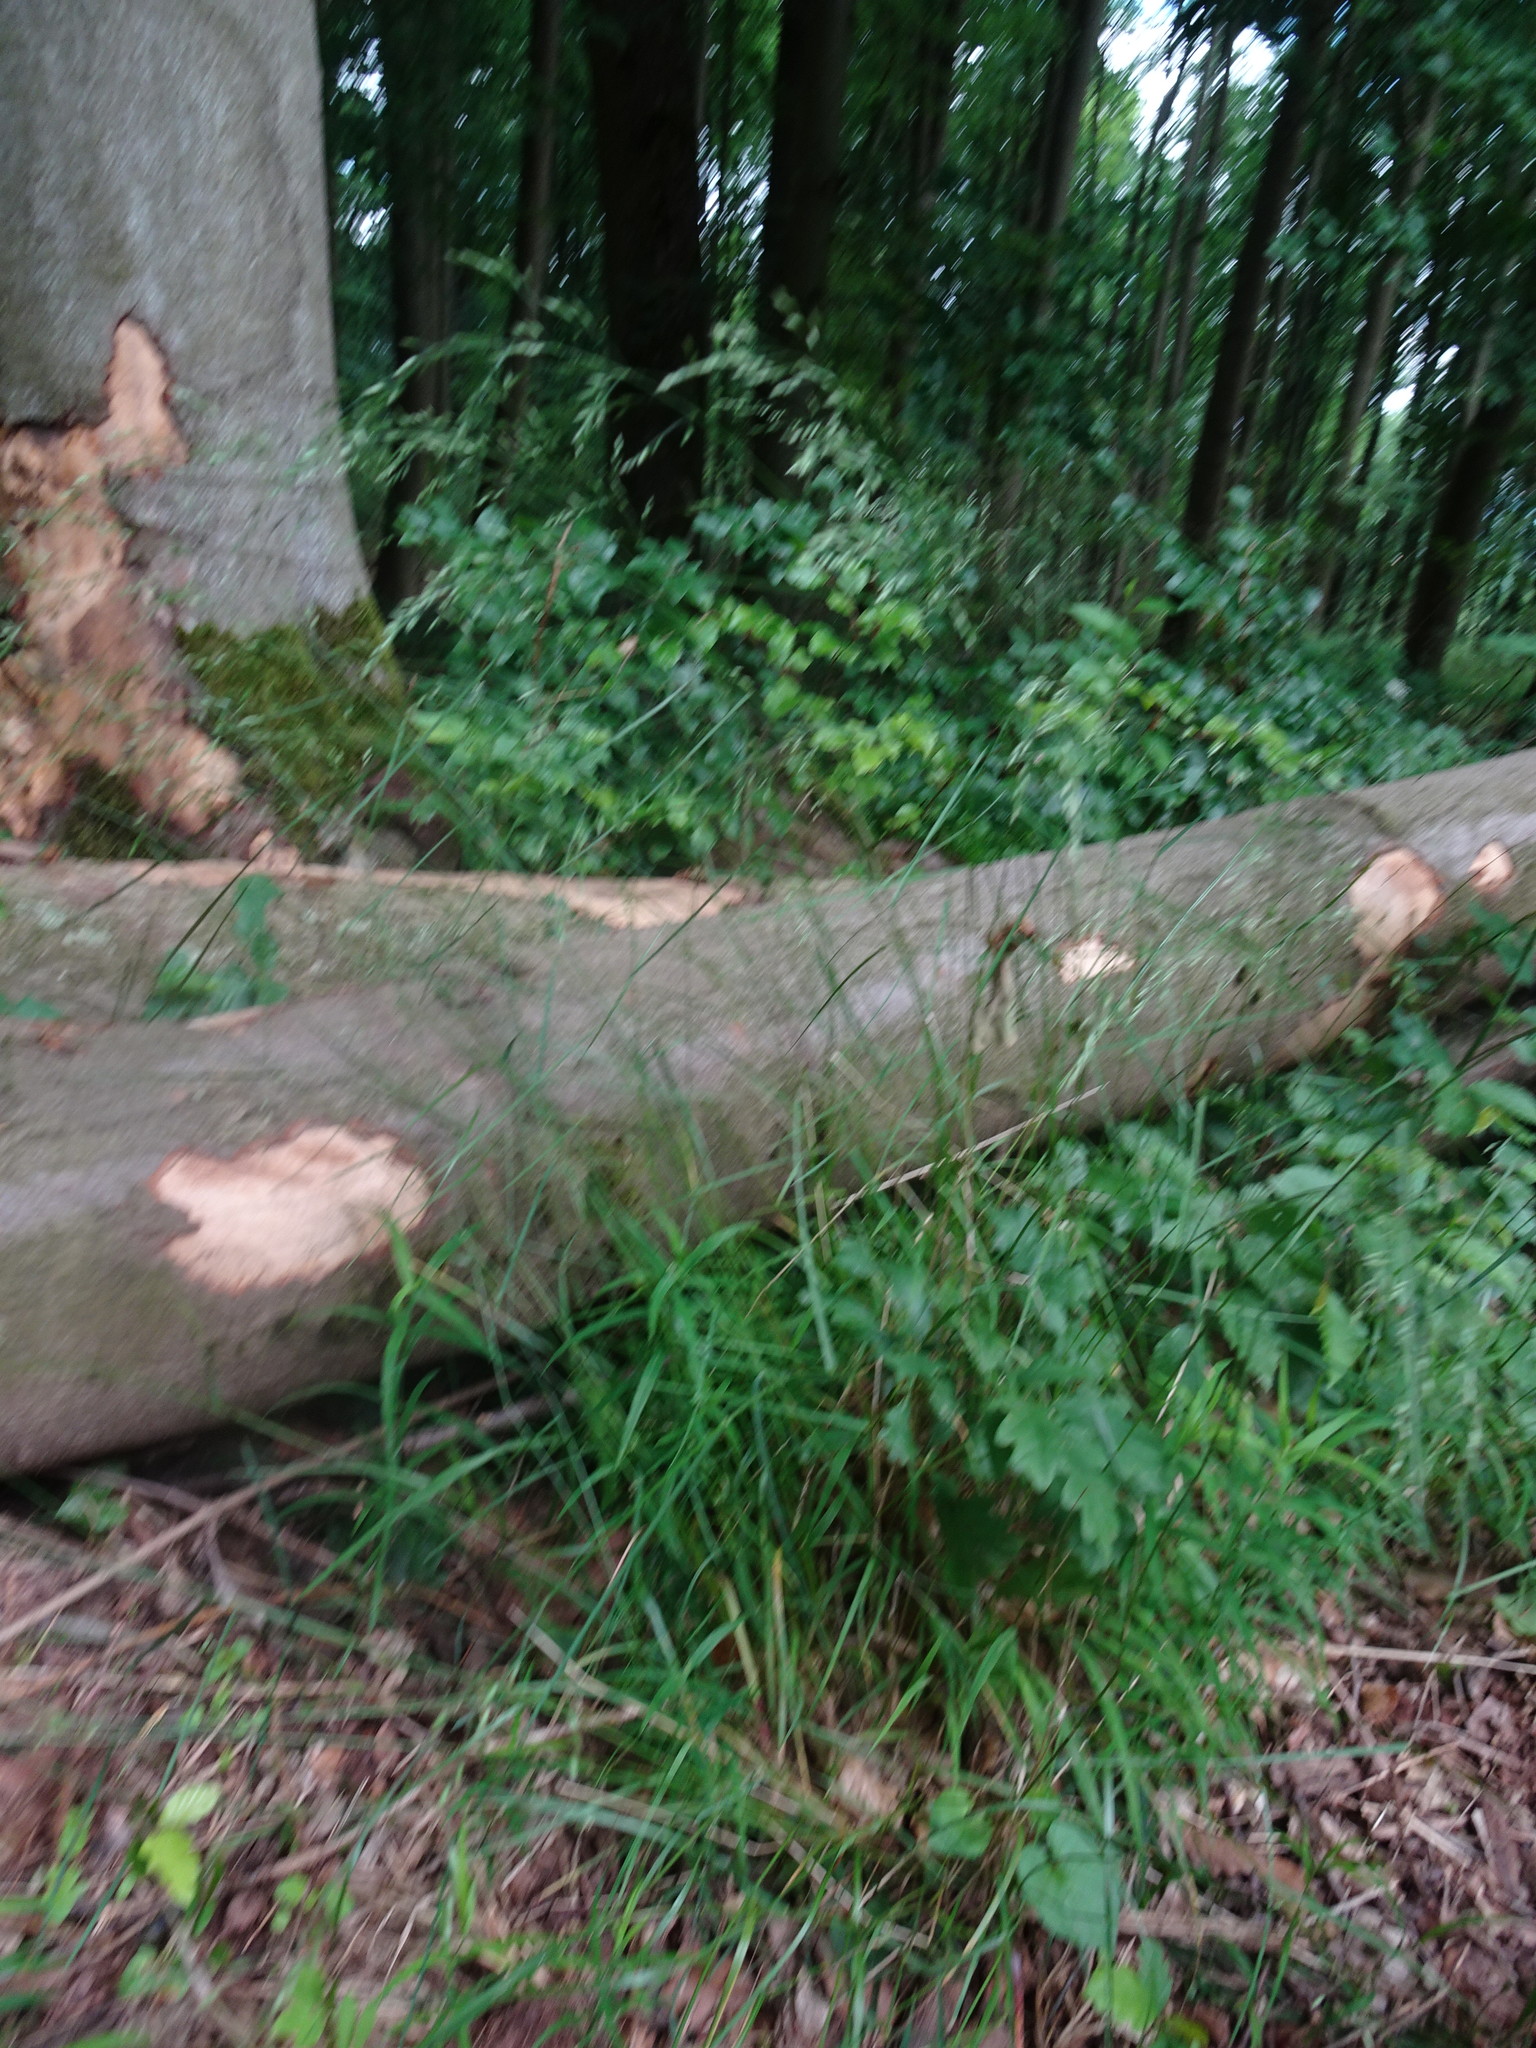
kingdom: Plantae
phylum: Tracheophyta
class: Liliopsida
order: Poales
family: Poaceae
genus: Poa
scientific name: Poa nemoralis
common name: Wood bluegrass
